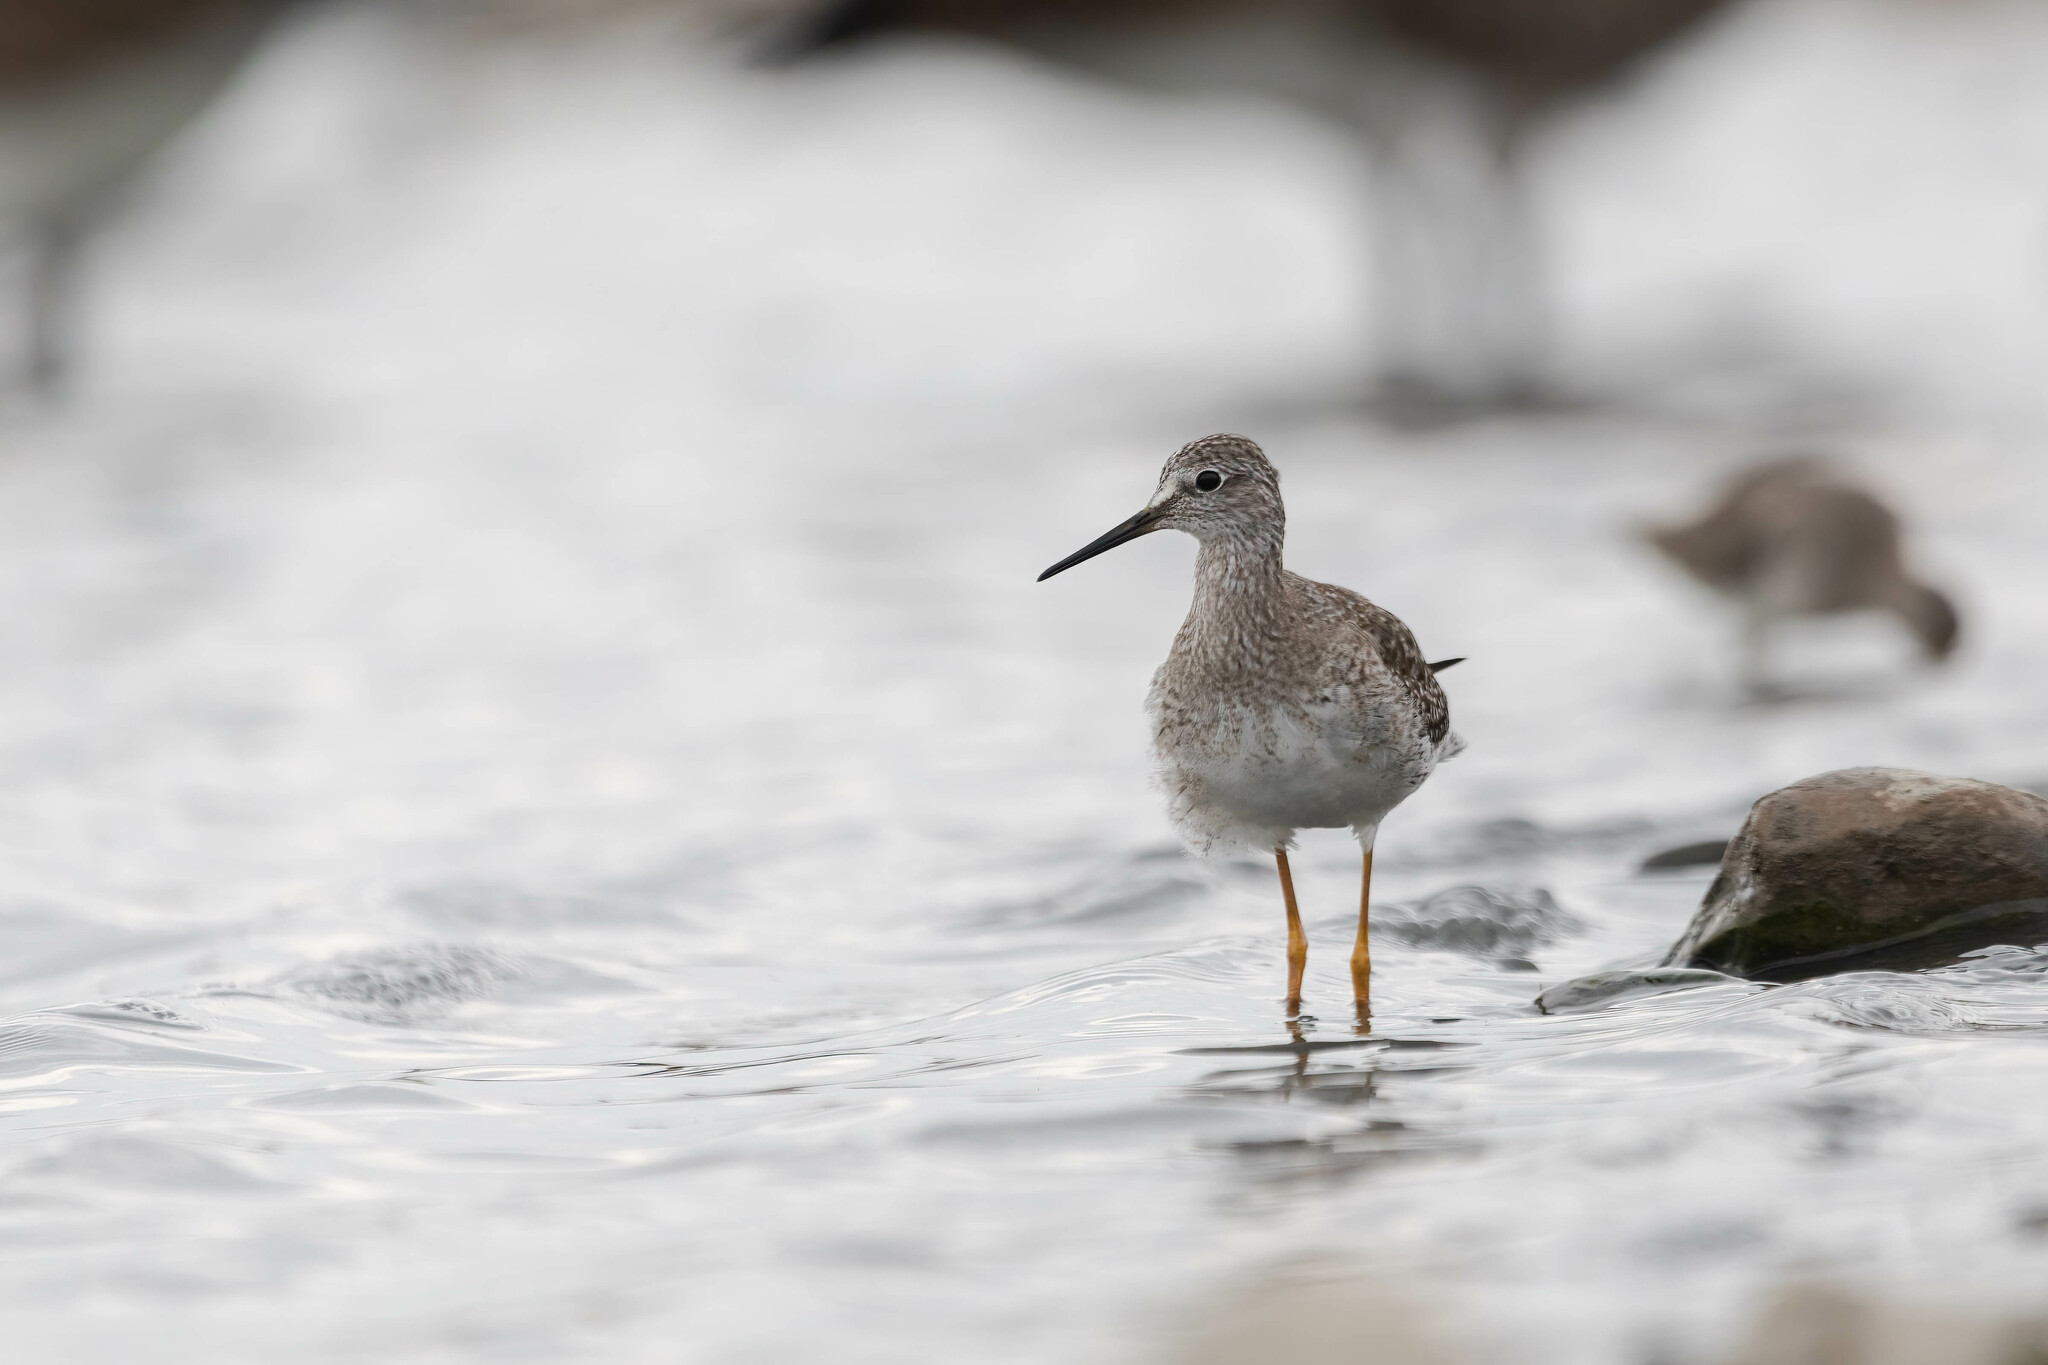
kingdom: Animalia
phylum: Chordata
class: Aves
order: Charadriiformes
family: Scolopacidae
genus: Tringa
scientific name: Tringa flavipes
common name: Lesser yellowlegs
